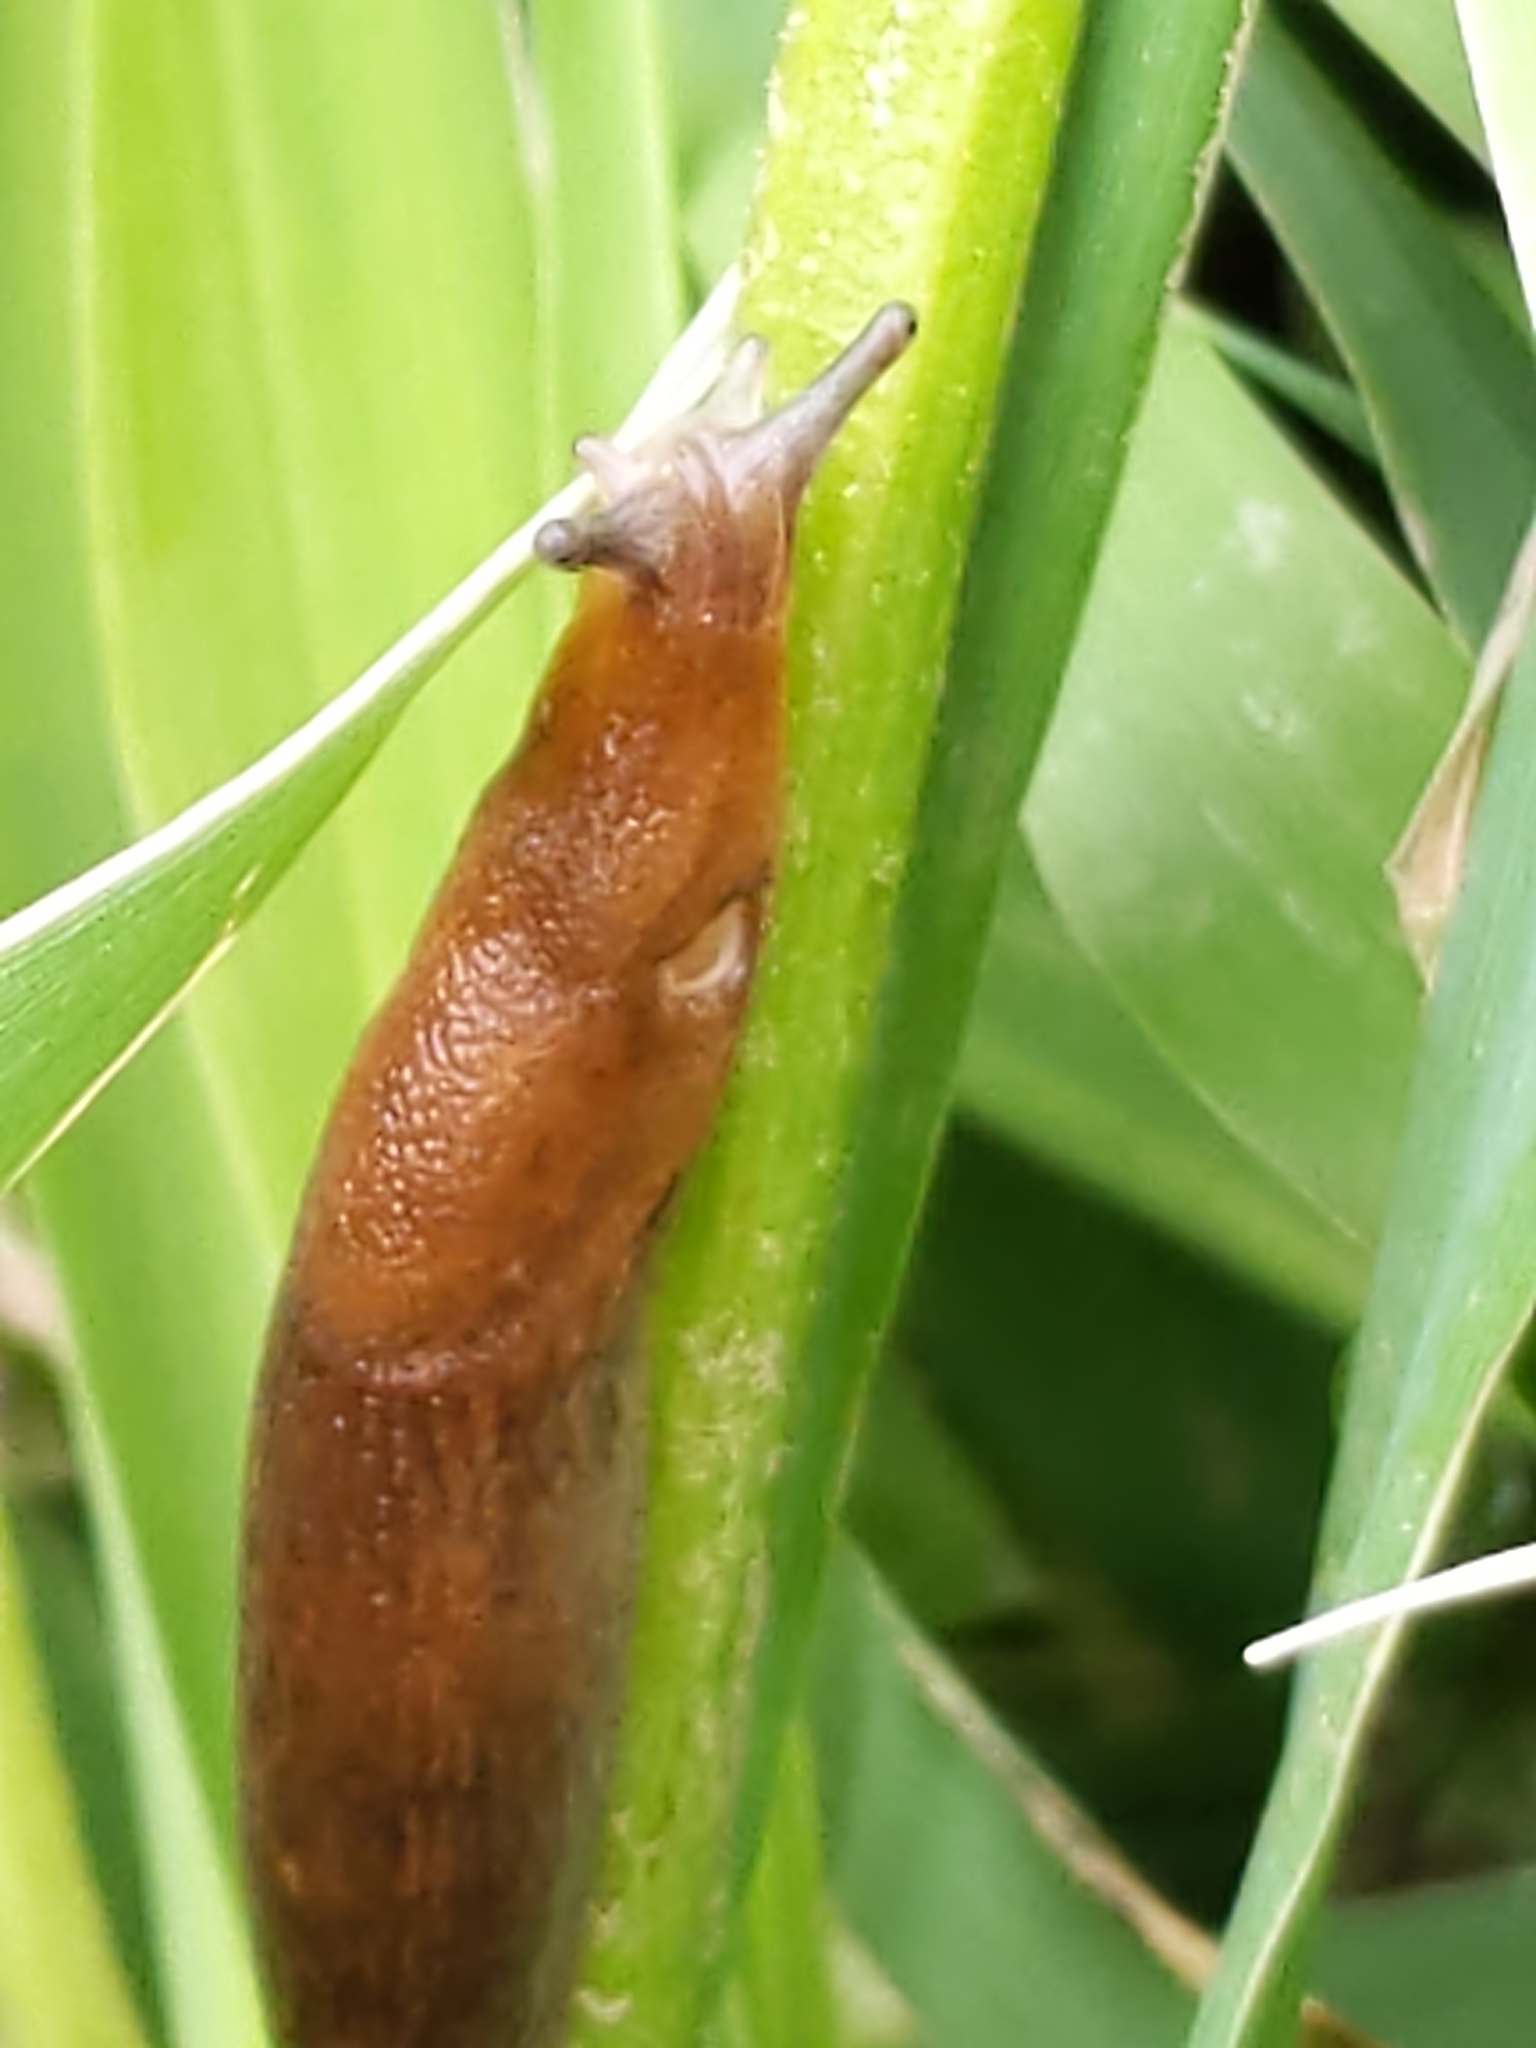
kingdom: Animalia
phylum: Mollusca
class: Gastropoda
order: Stylommatophora
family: Arionidae
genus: Mesarion
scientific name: Mesarion
